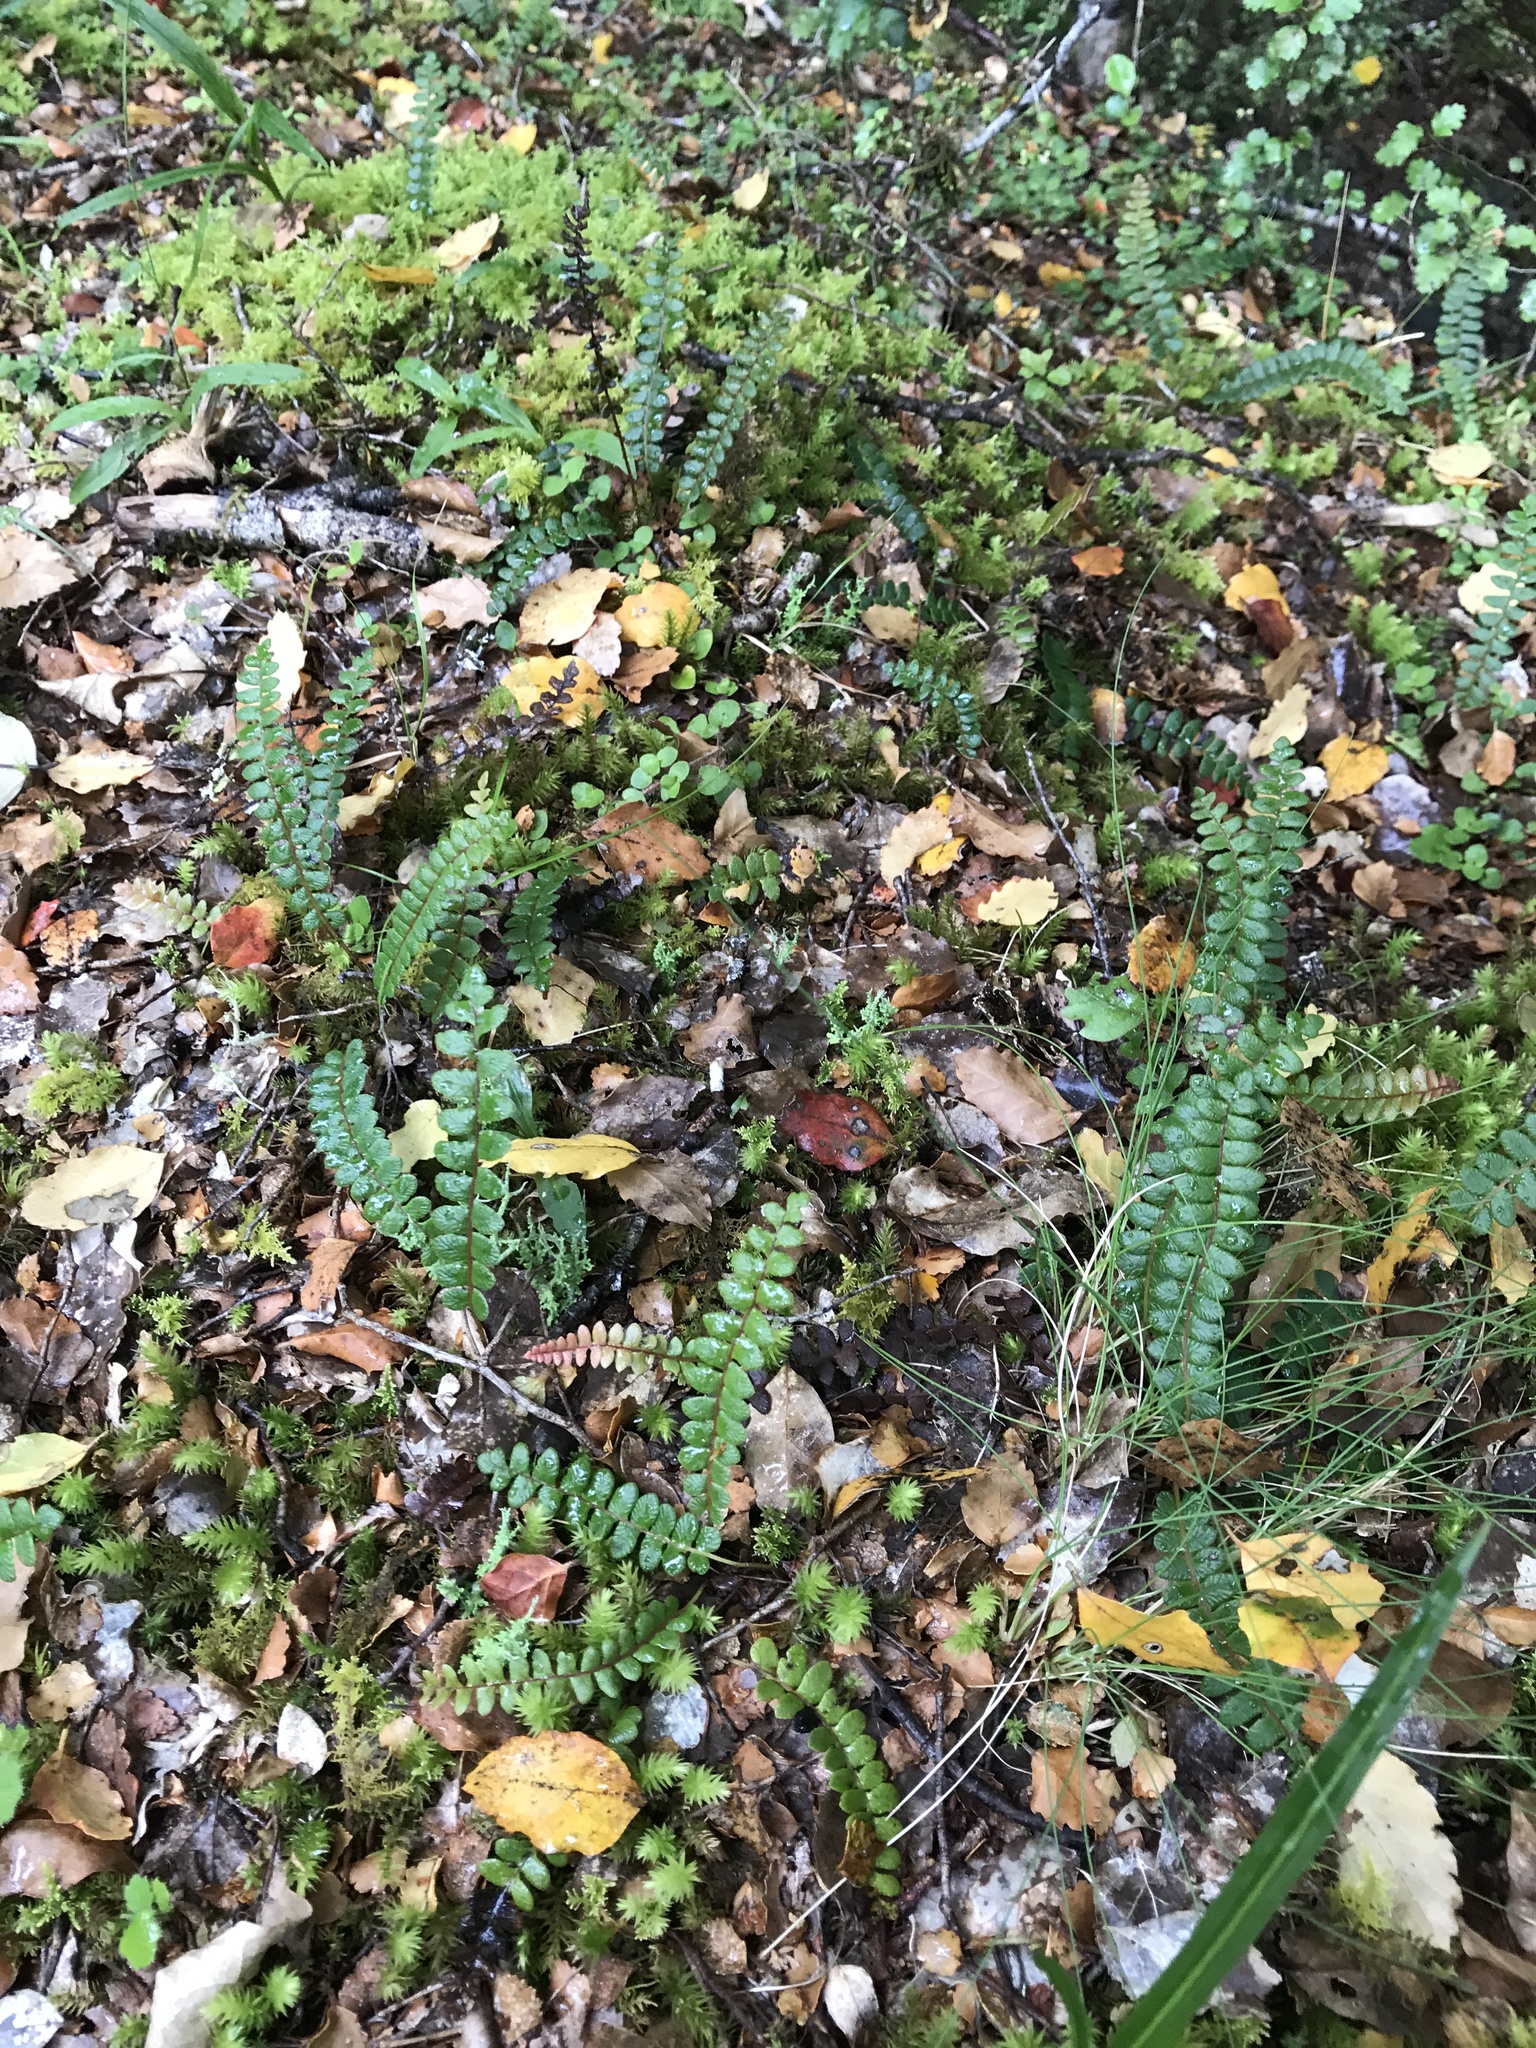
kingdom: Plantae
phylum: Tracheophyta
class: Polypodiopsida
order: Polypodiales
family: Blechnaceae
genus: Austroblechnum
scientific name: Austroblechnum penna-marina
